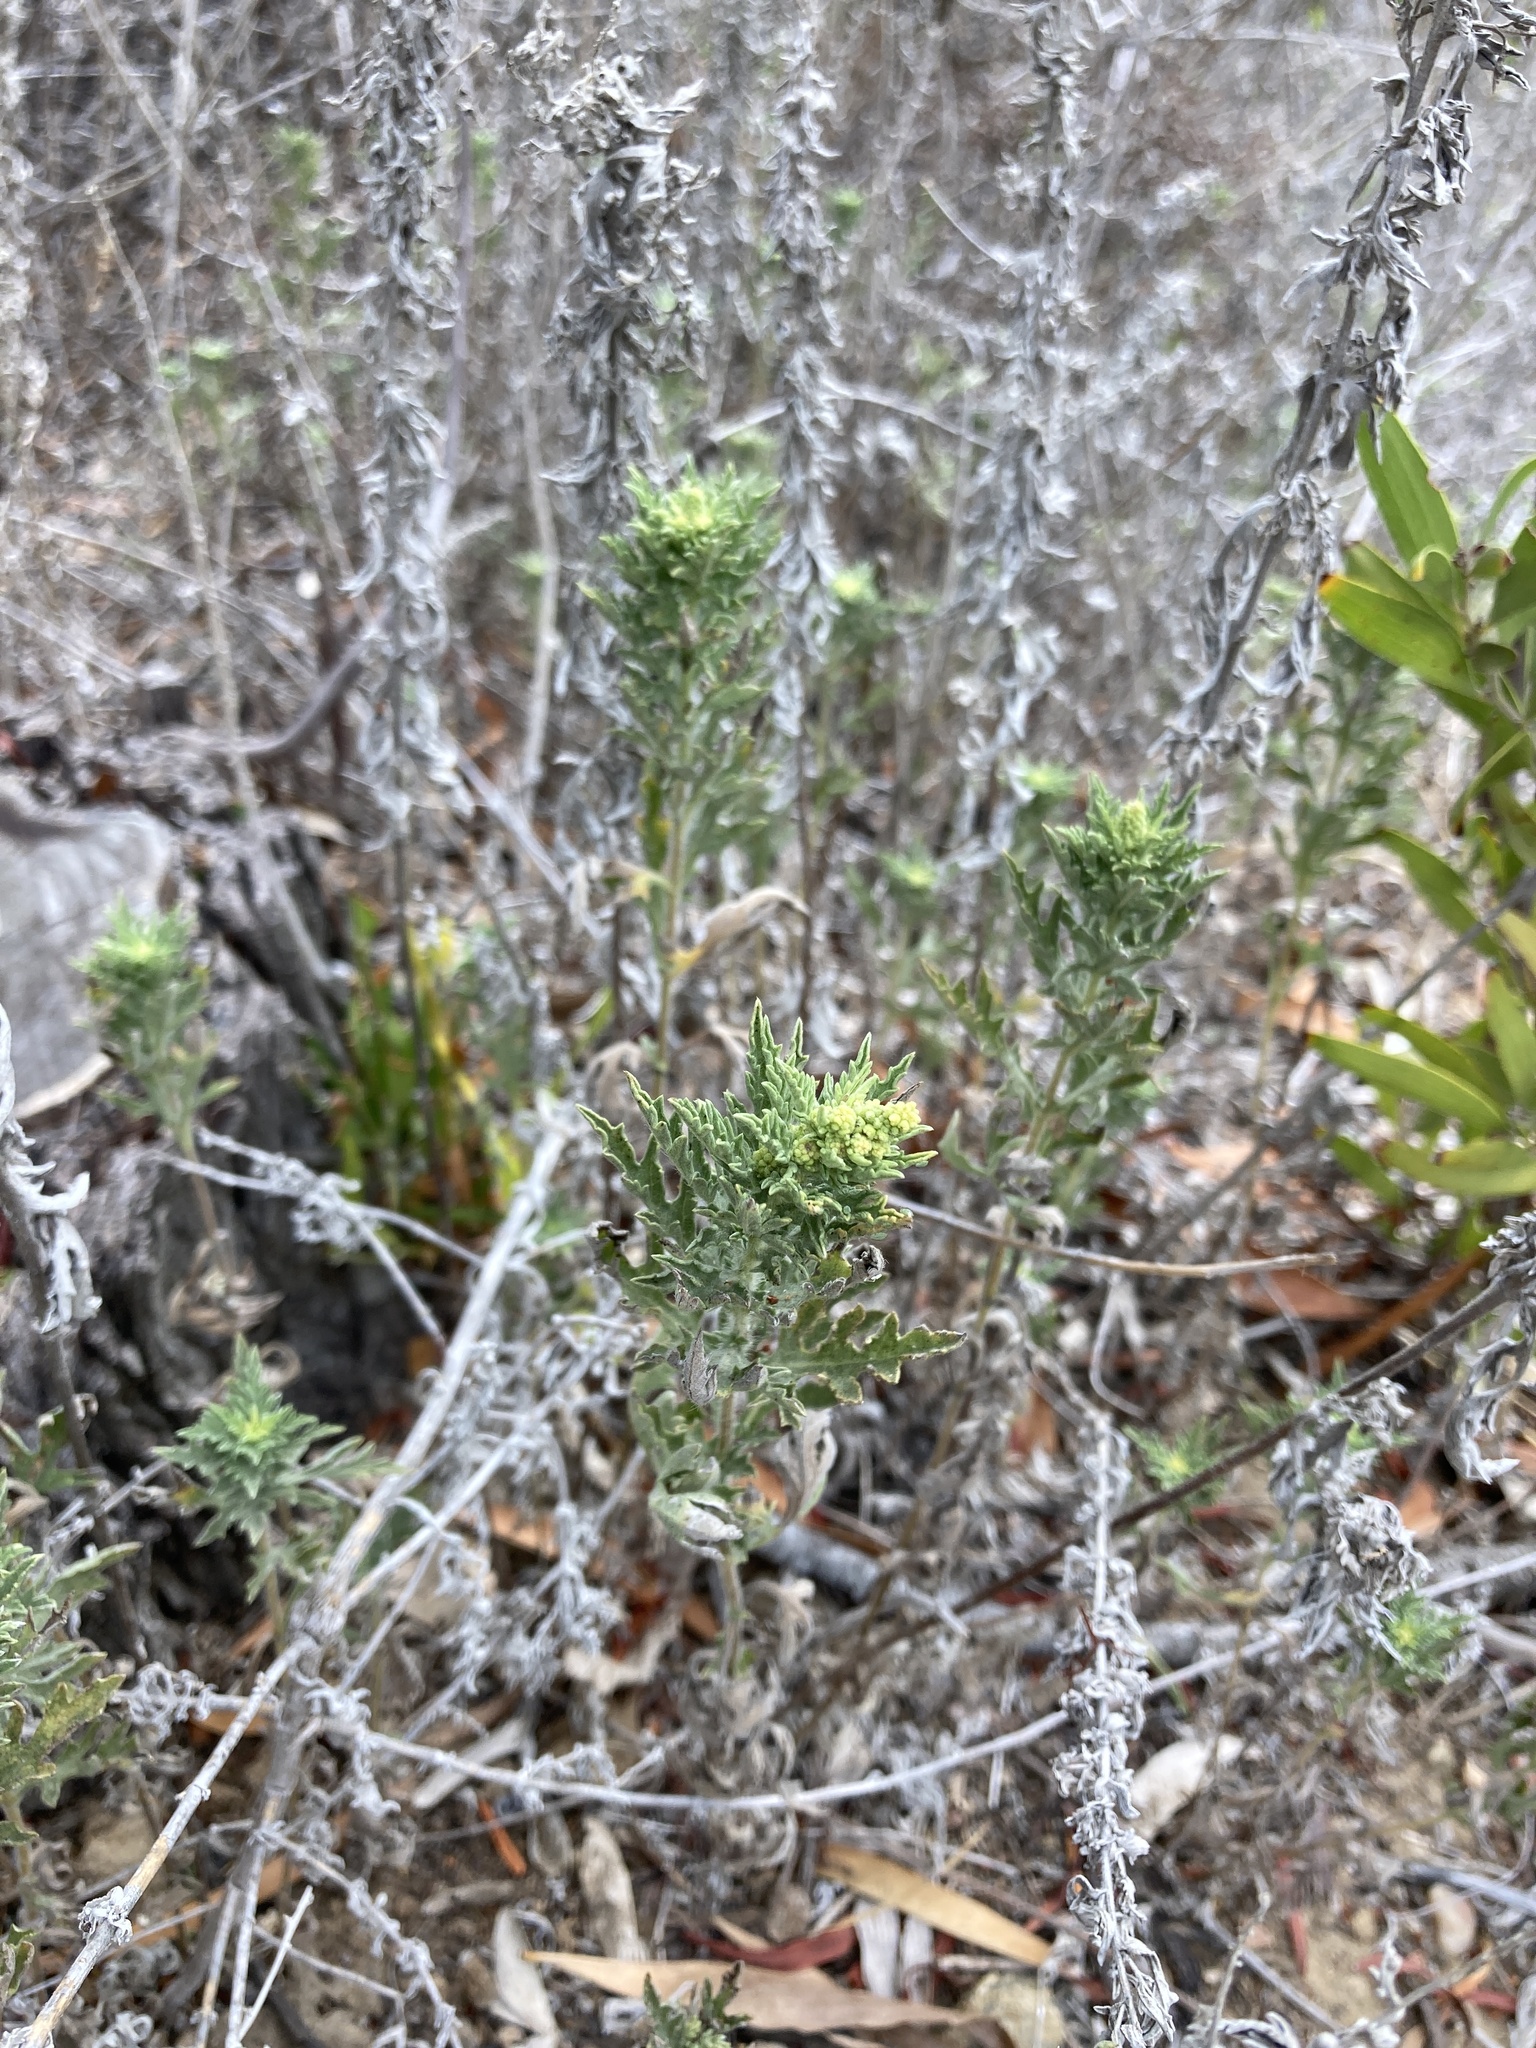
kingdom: Plantae
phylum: Tracheophyta
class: Magnoliopsida
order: Asterales
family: Asteraceae
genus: Ambrosia
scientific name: Ambrosia psilostachya
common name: Perennial ragweed
